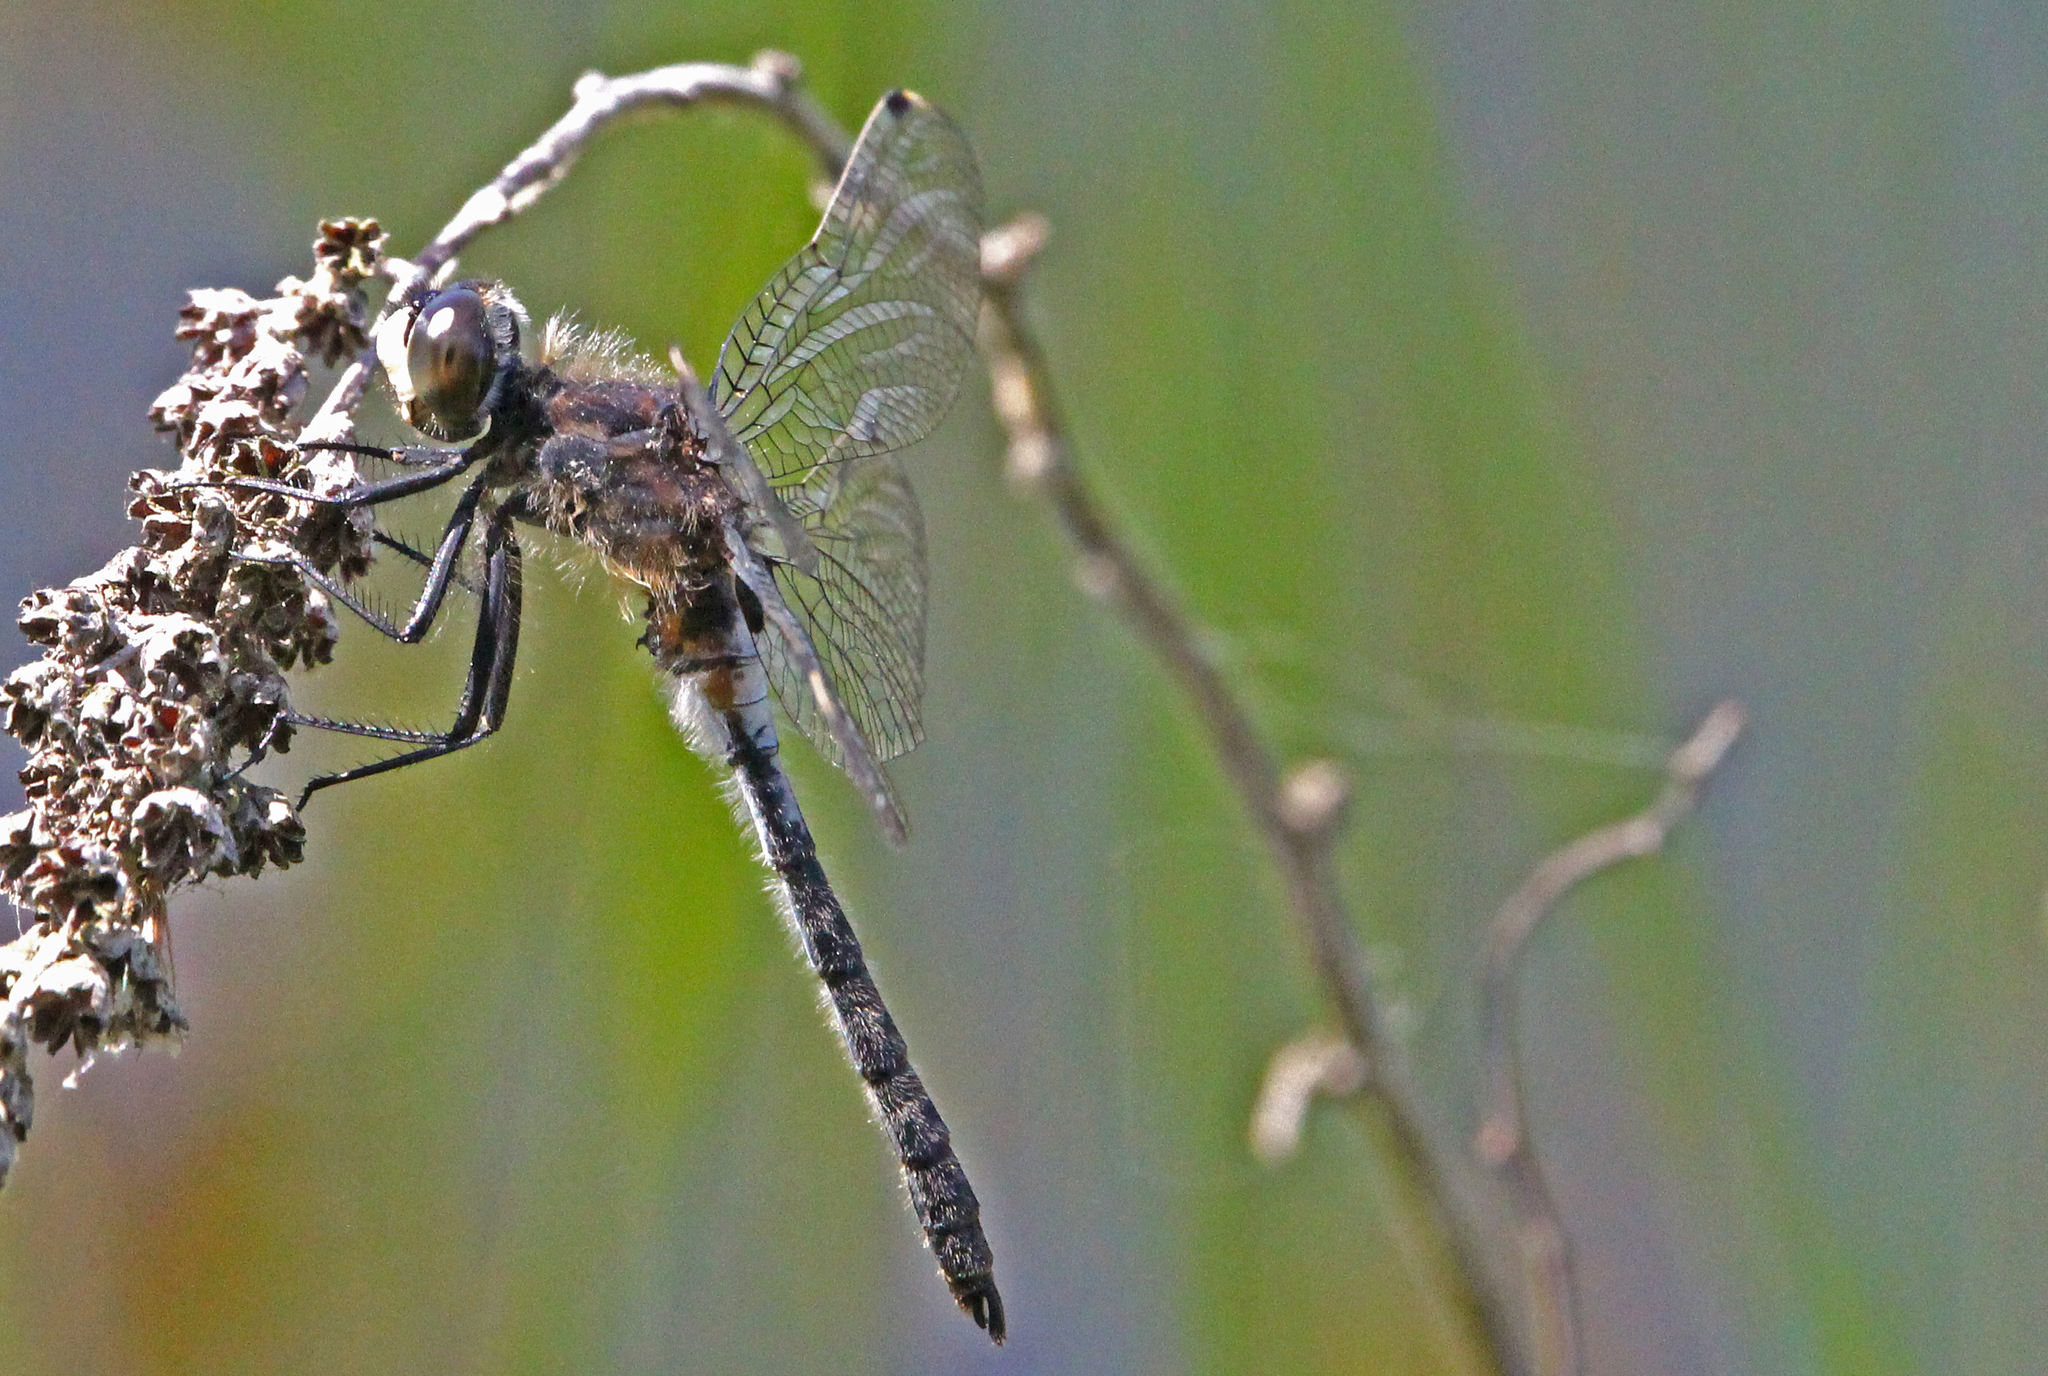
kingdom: Animalia
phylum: Arthropoda
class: Insecta
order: Odonata
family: Libellulidae
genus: Leucorrhinia
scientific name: Leucorrhinia proxima
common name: Belted whiteface
